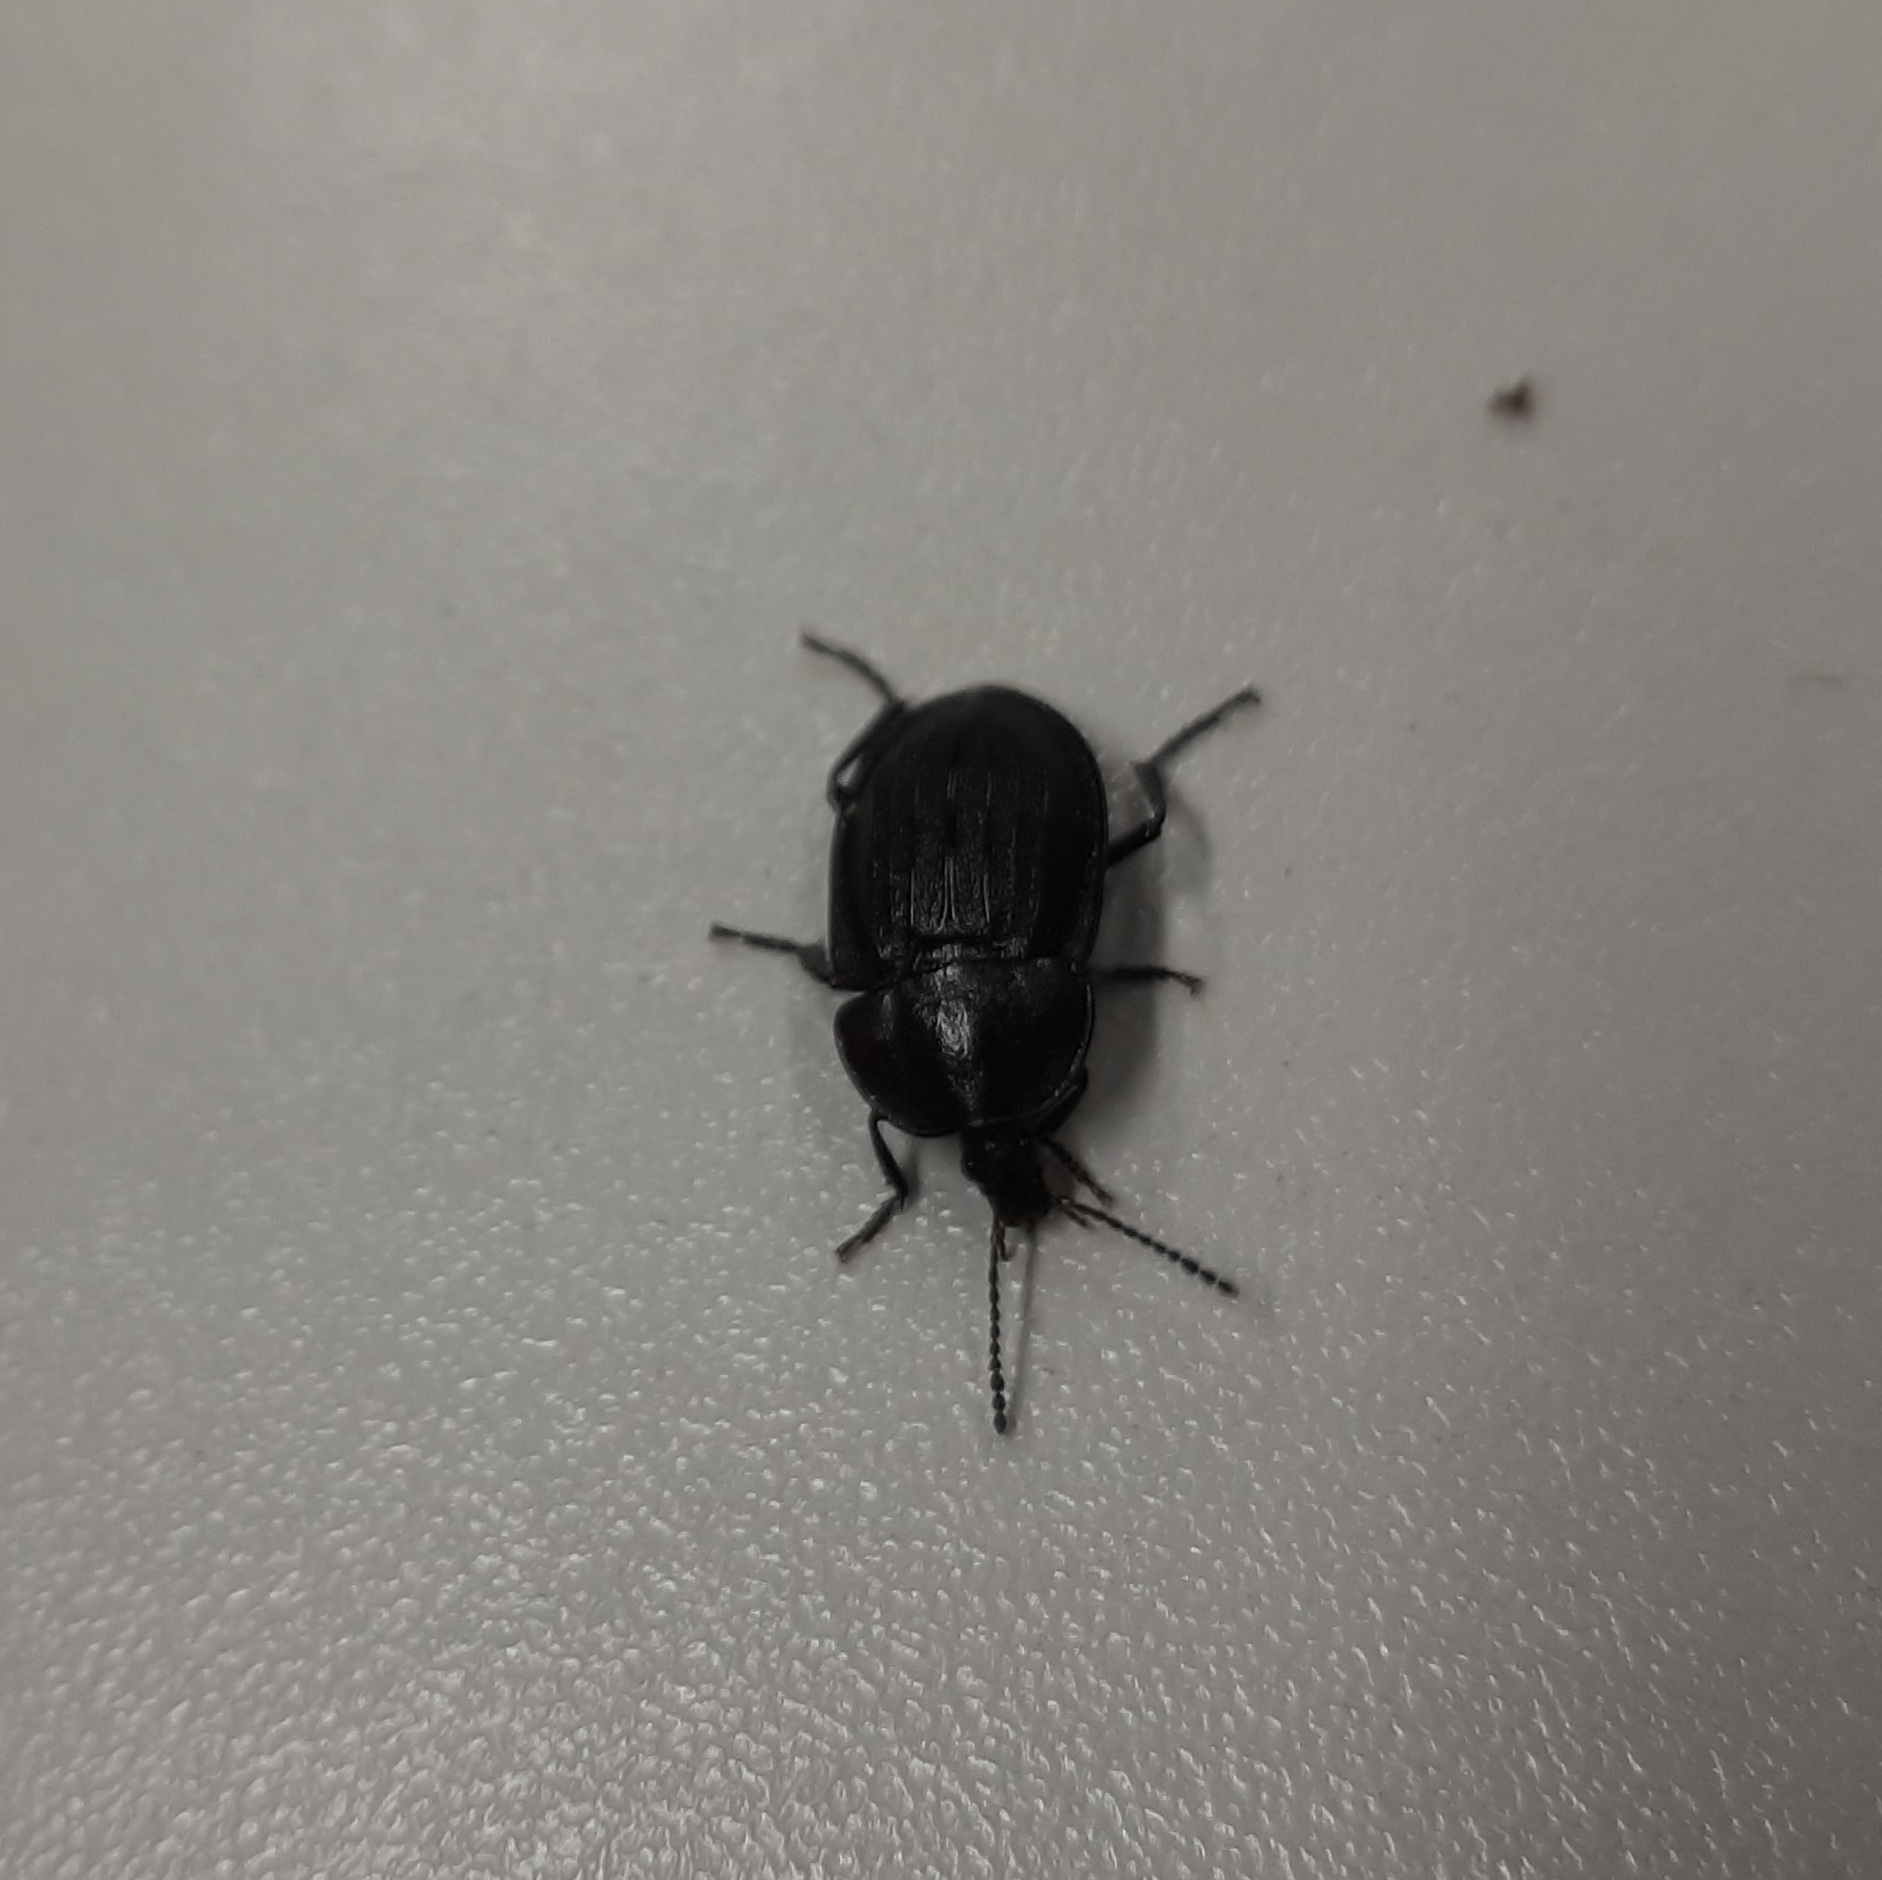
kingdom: Animalia
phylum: Arthropoda
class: Insecta
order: Coleoptera
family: Staphylinidae
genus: Silpha
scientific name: Silpha atrata
